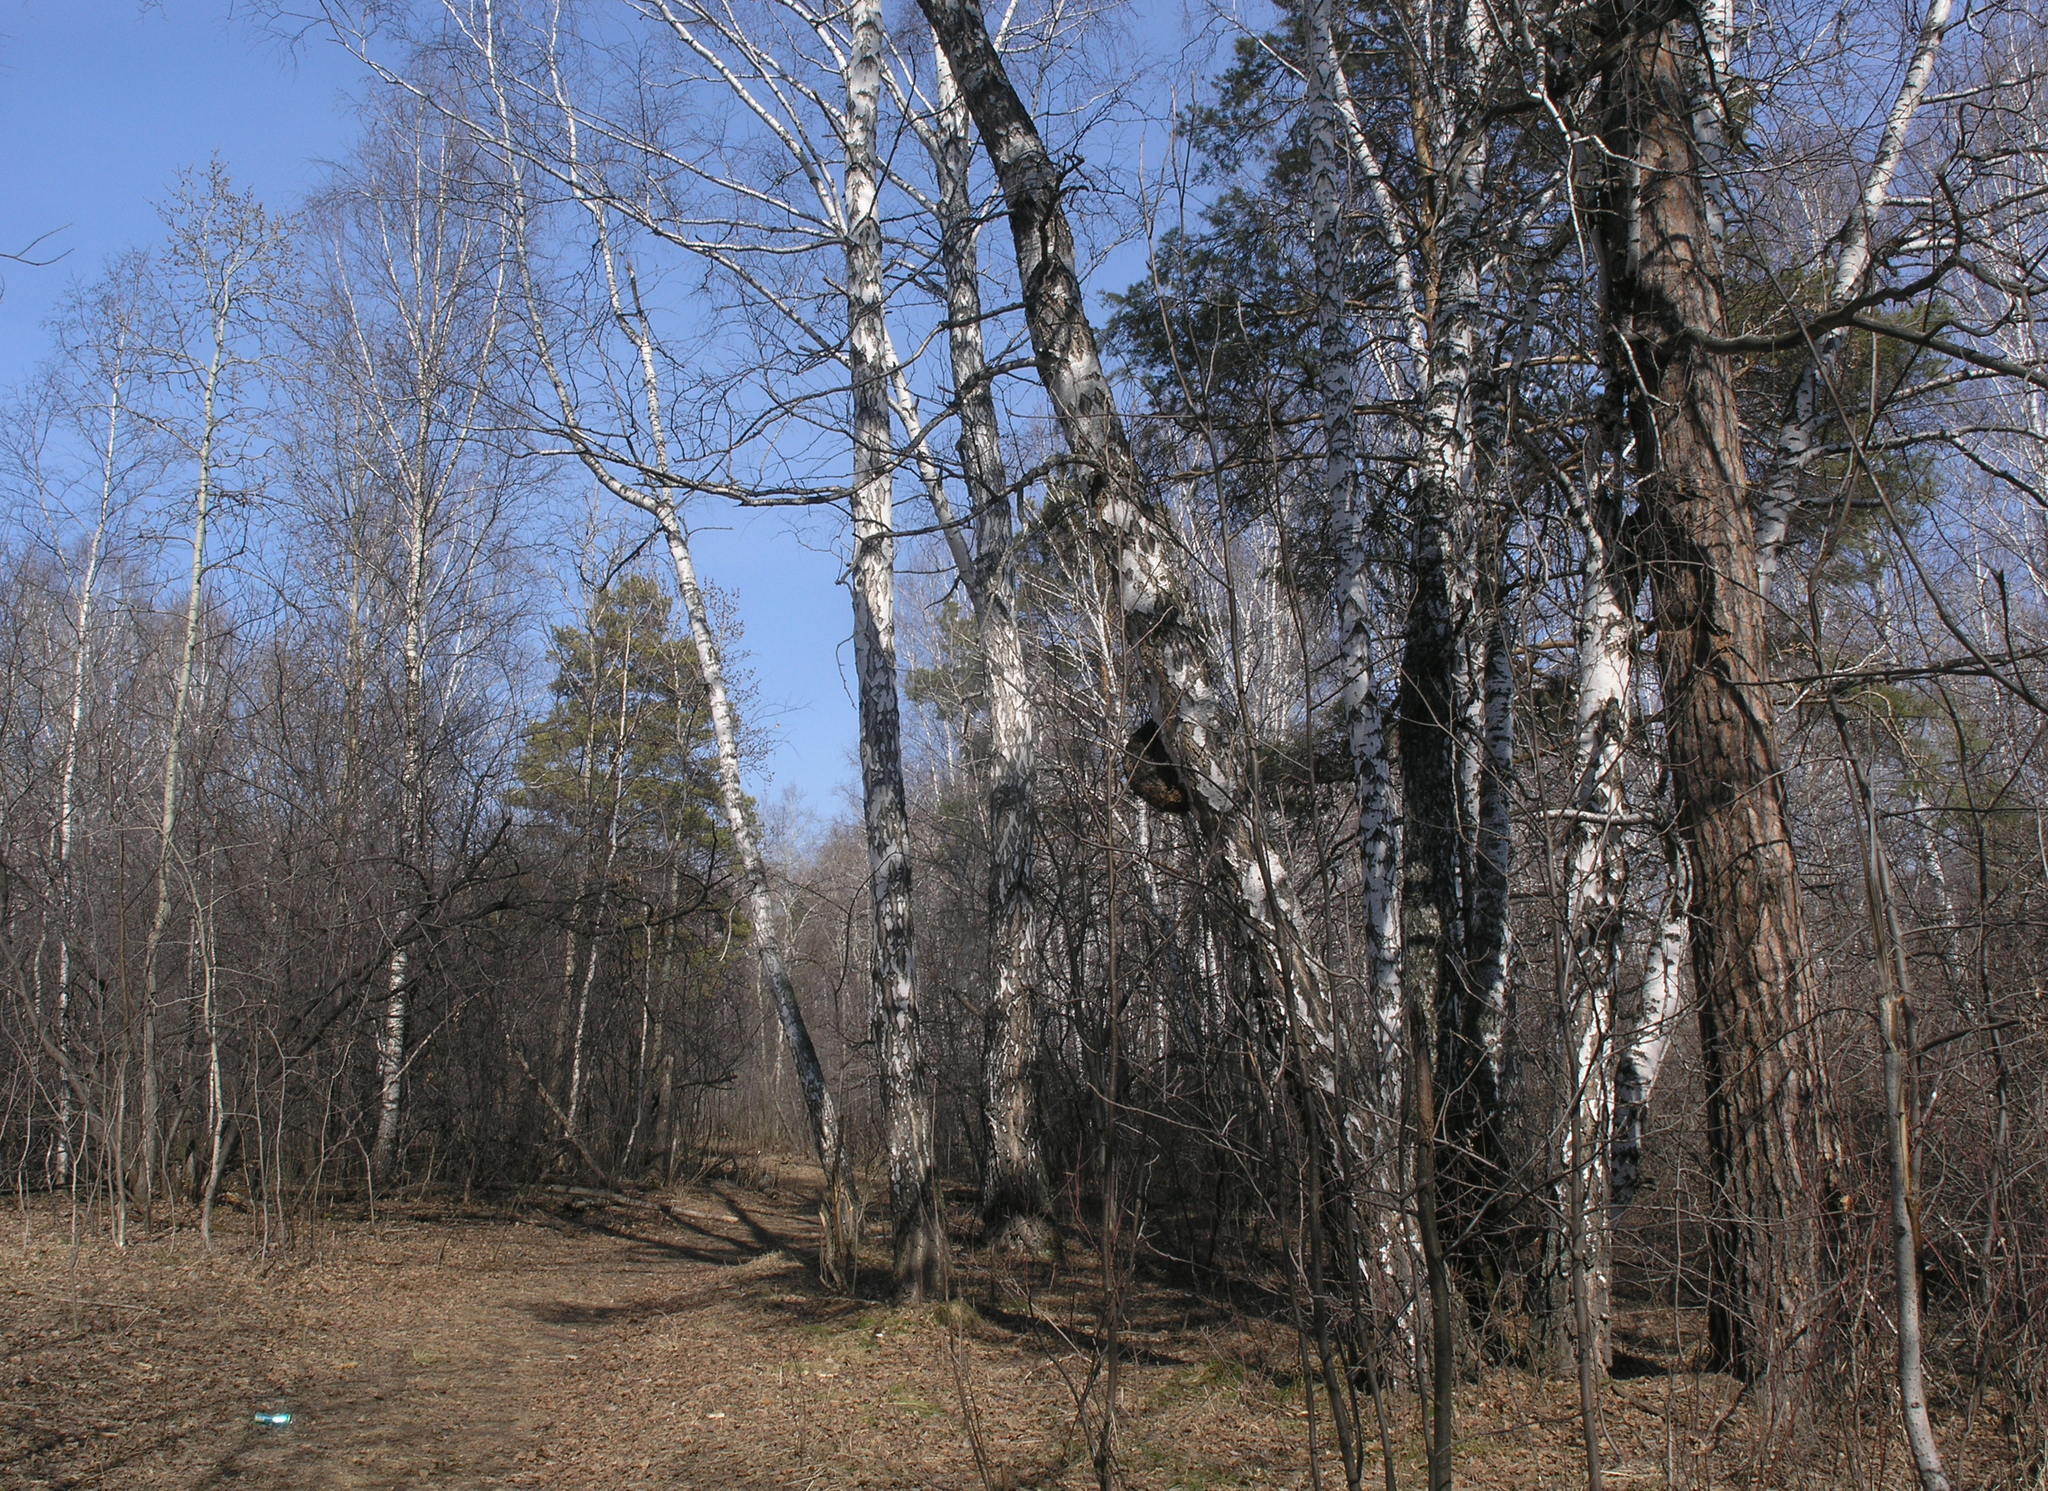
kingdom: Plantae
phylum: Tracheophyta
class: Pinopsida
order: Pinales
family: Pinaceae
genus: Pinus
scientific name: Pinus sylvestris
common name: Scots pine
